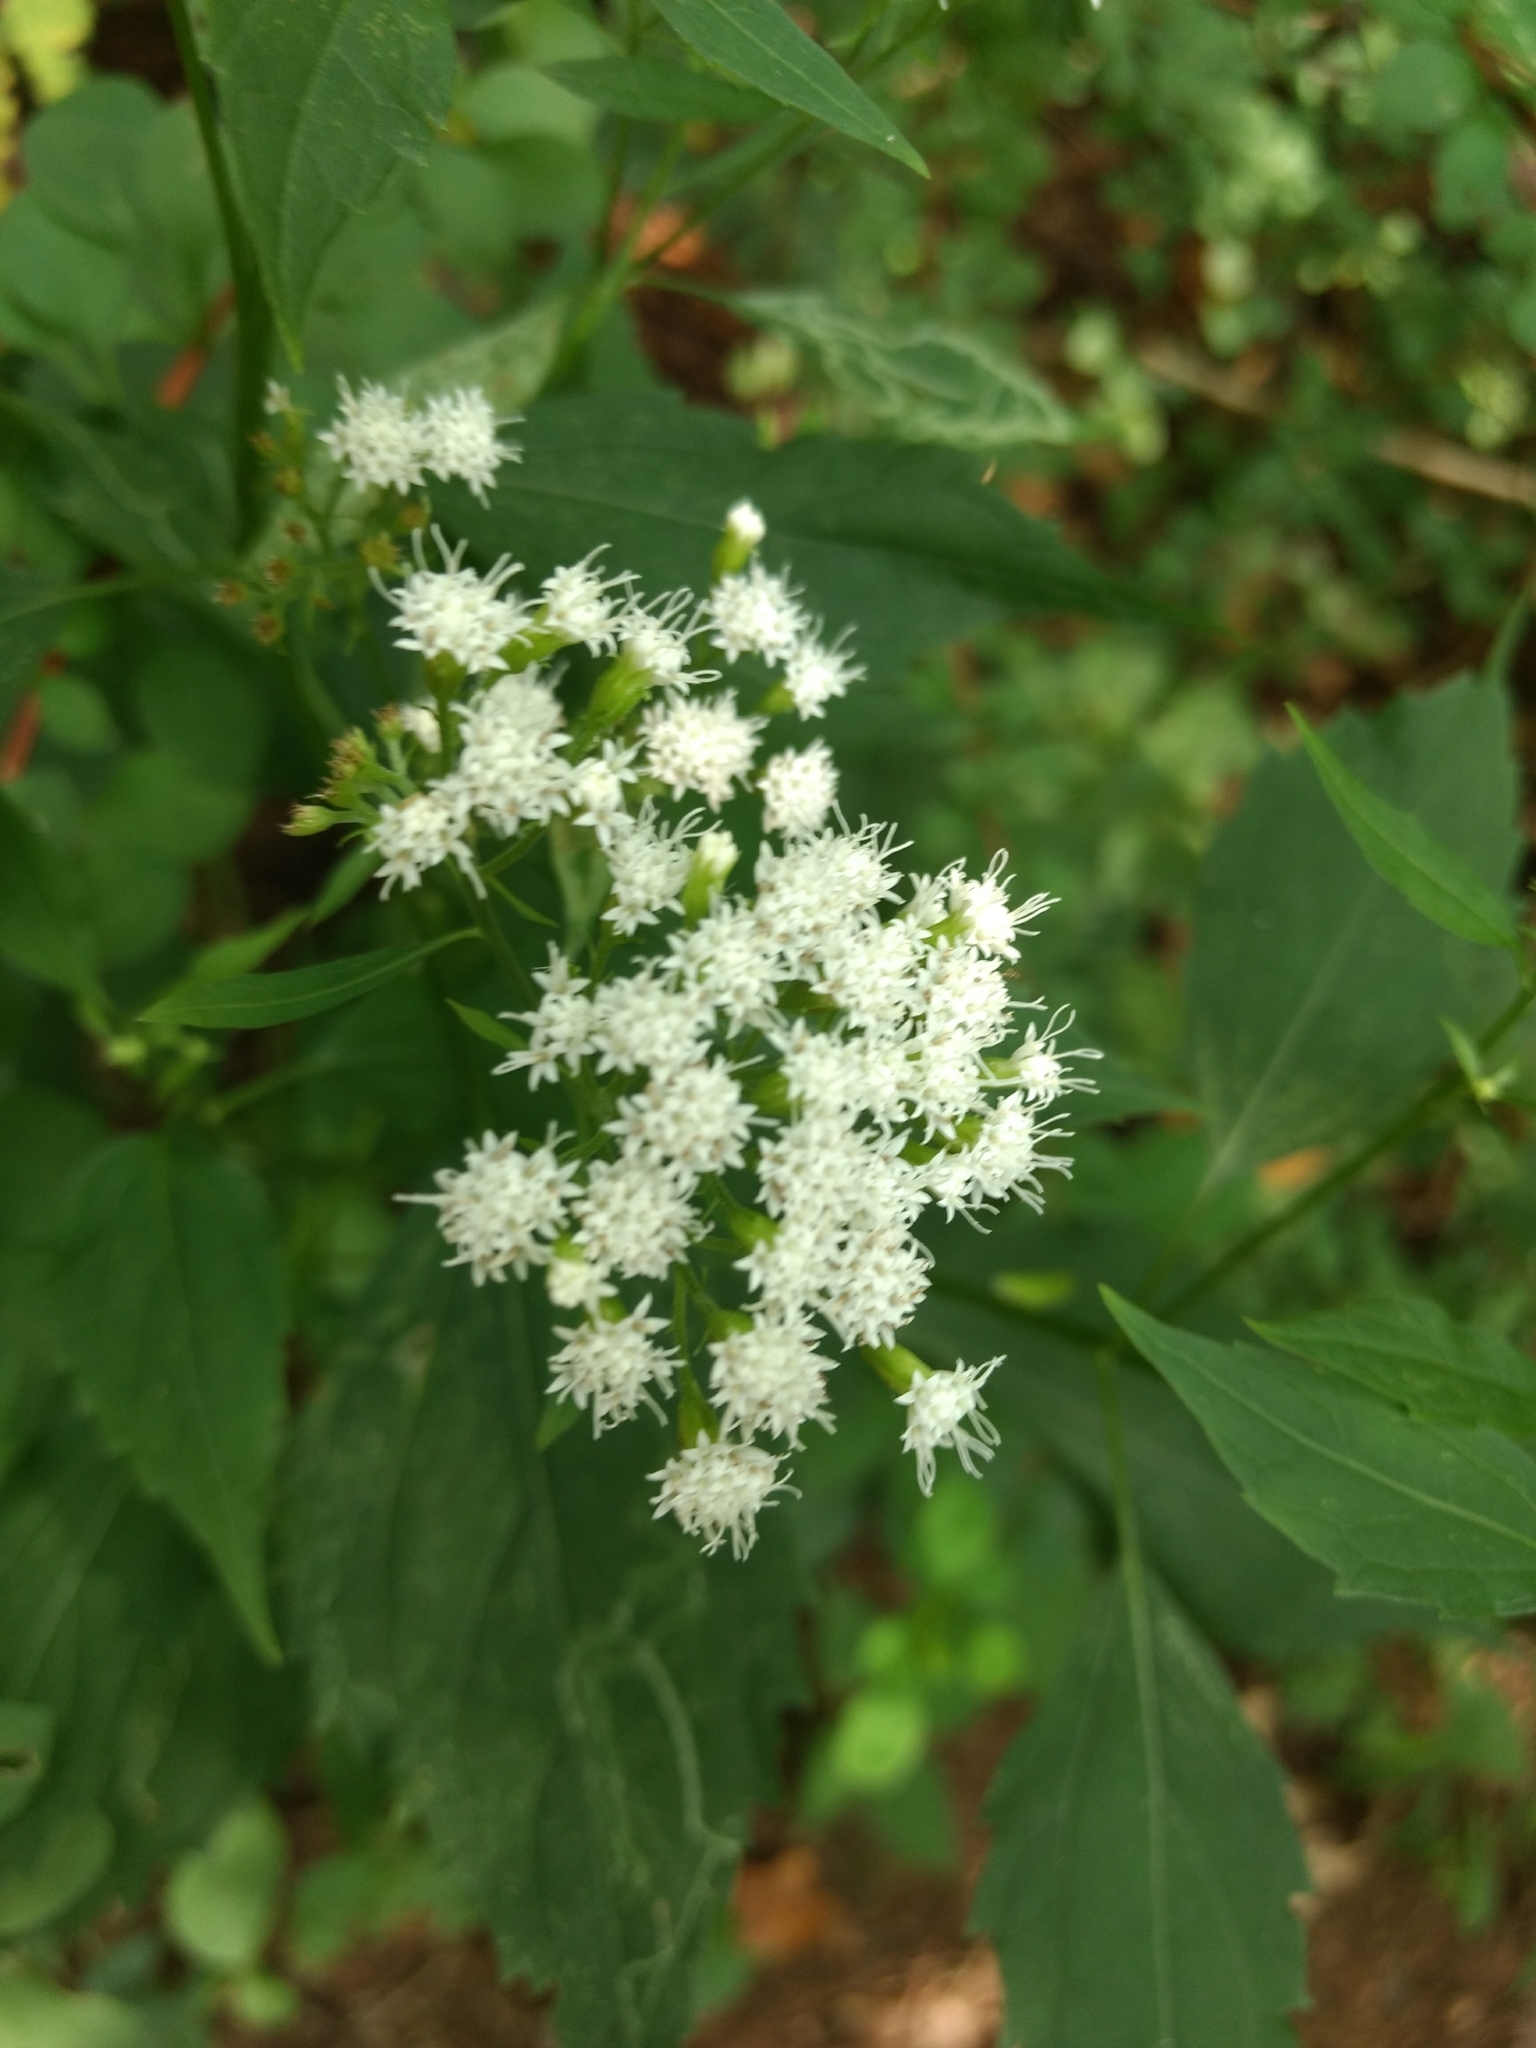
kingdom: Plantae
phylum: Tracheophyta
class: Magnoliopsida
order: Asterales
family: Asteraceae
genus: Ageratina
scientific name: Ageratina altissima
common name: White snakeroot
